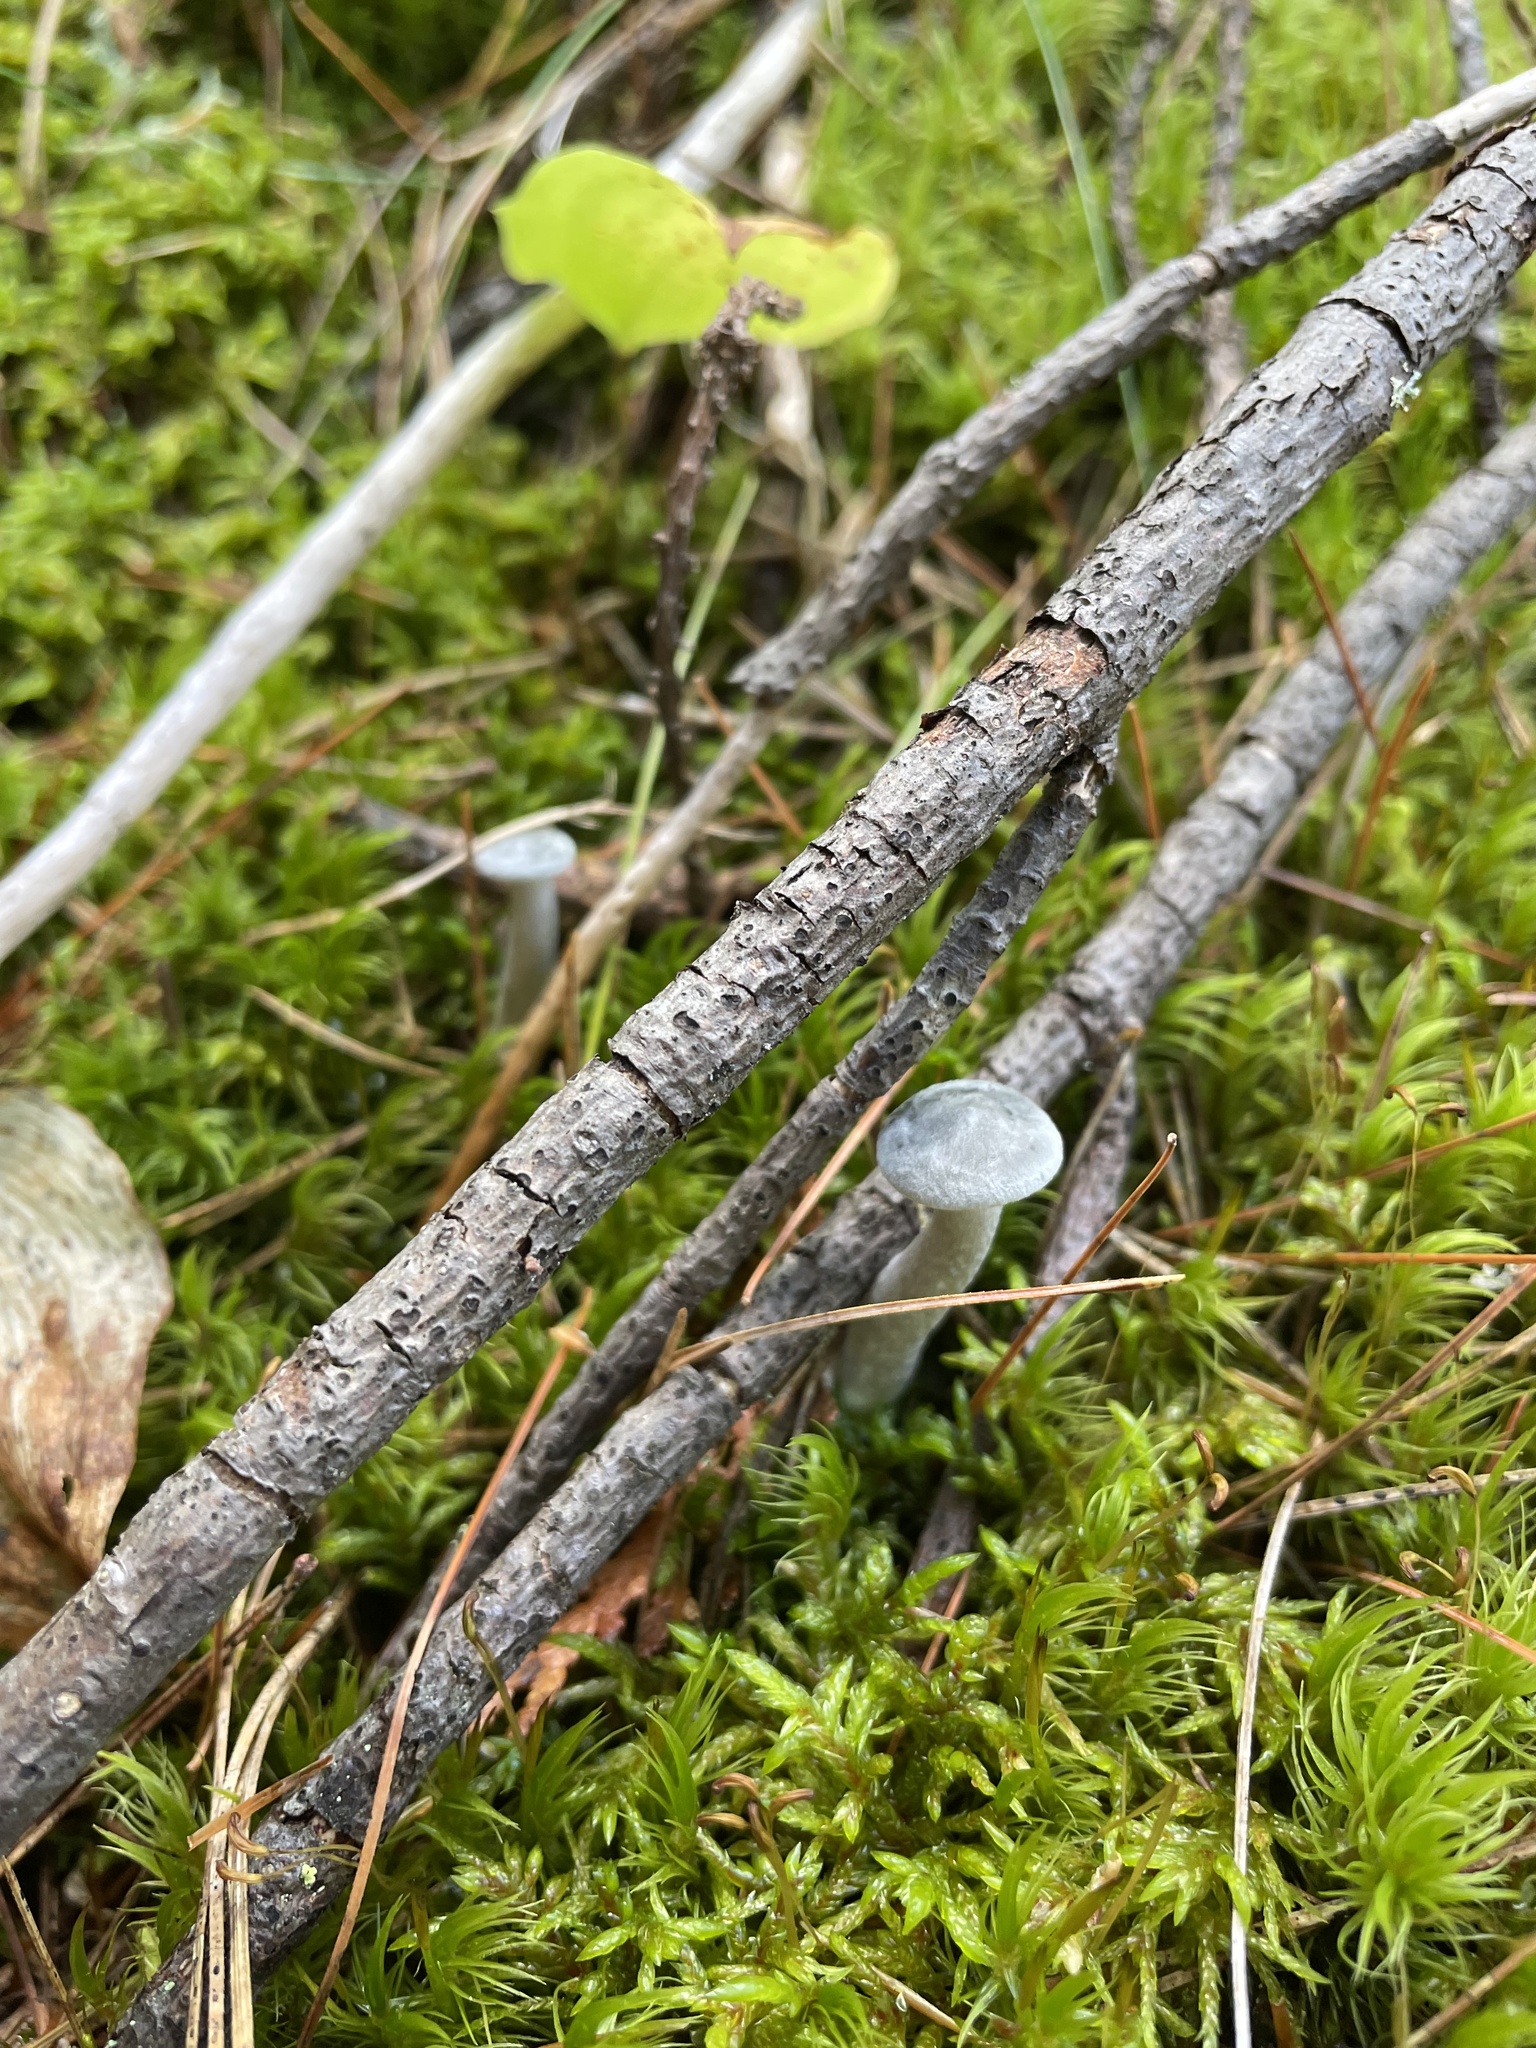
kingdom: Fungi
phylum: Basidiomycota
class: Agaricomycetes
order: Agaricales
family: Hygrophoraceae
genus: Cantharellula
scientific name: Cantharellula umbonata
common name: The humpback
